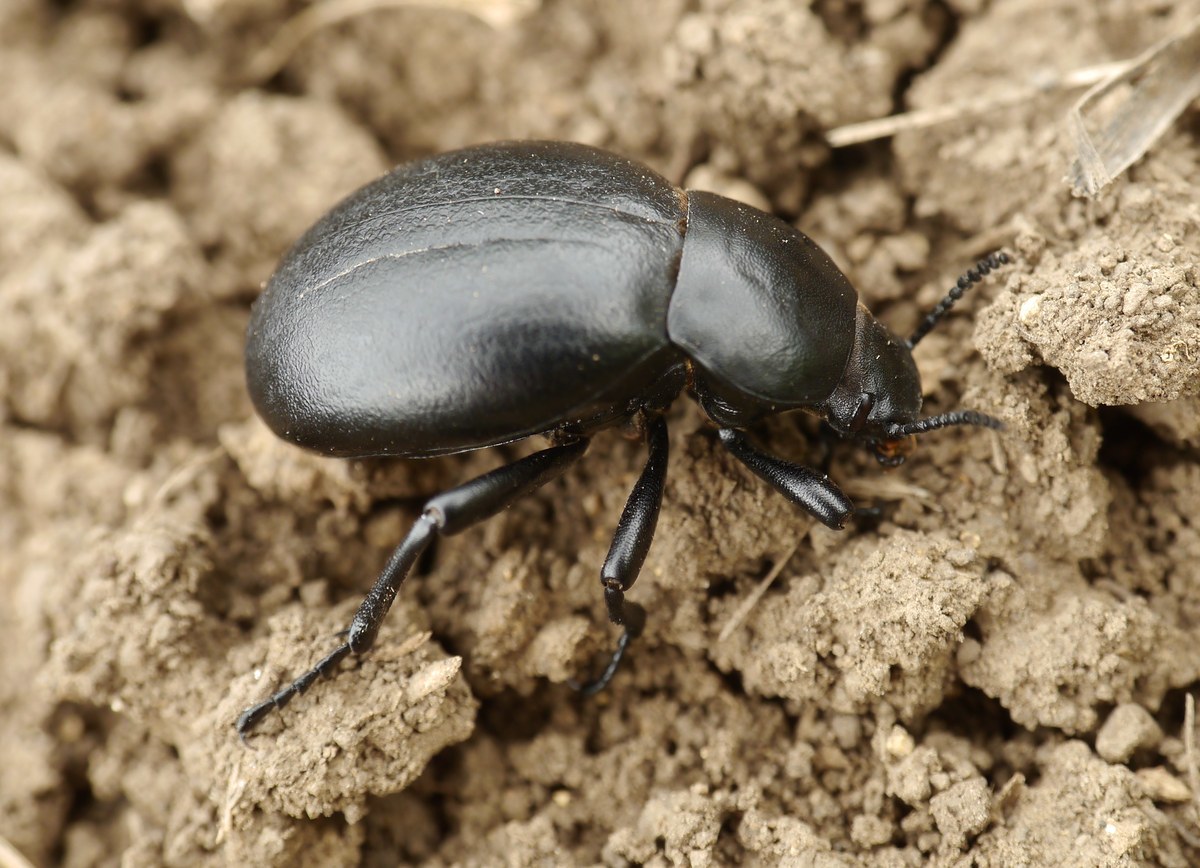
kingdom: Animalia
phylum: Arthropoda
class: Insecta
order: Coleoptera
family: Tenebrionidae
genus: Gnaptor
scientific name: Gnaptor spinimanus
